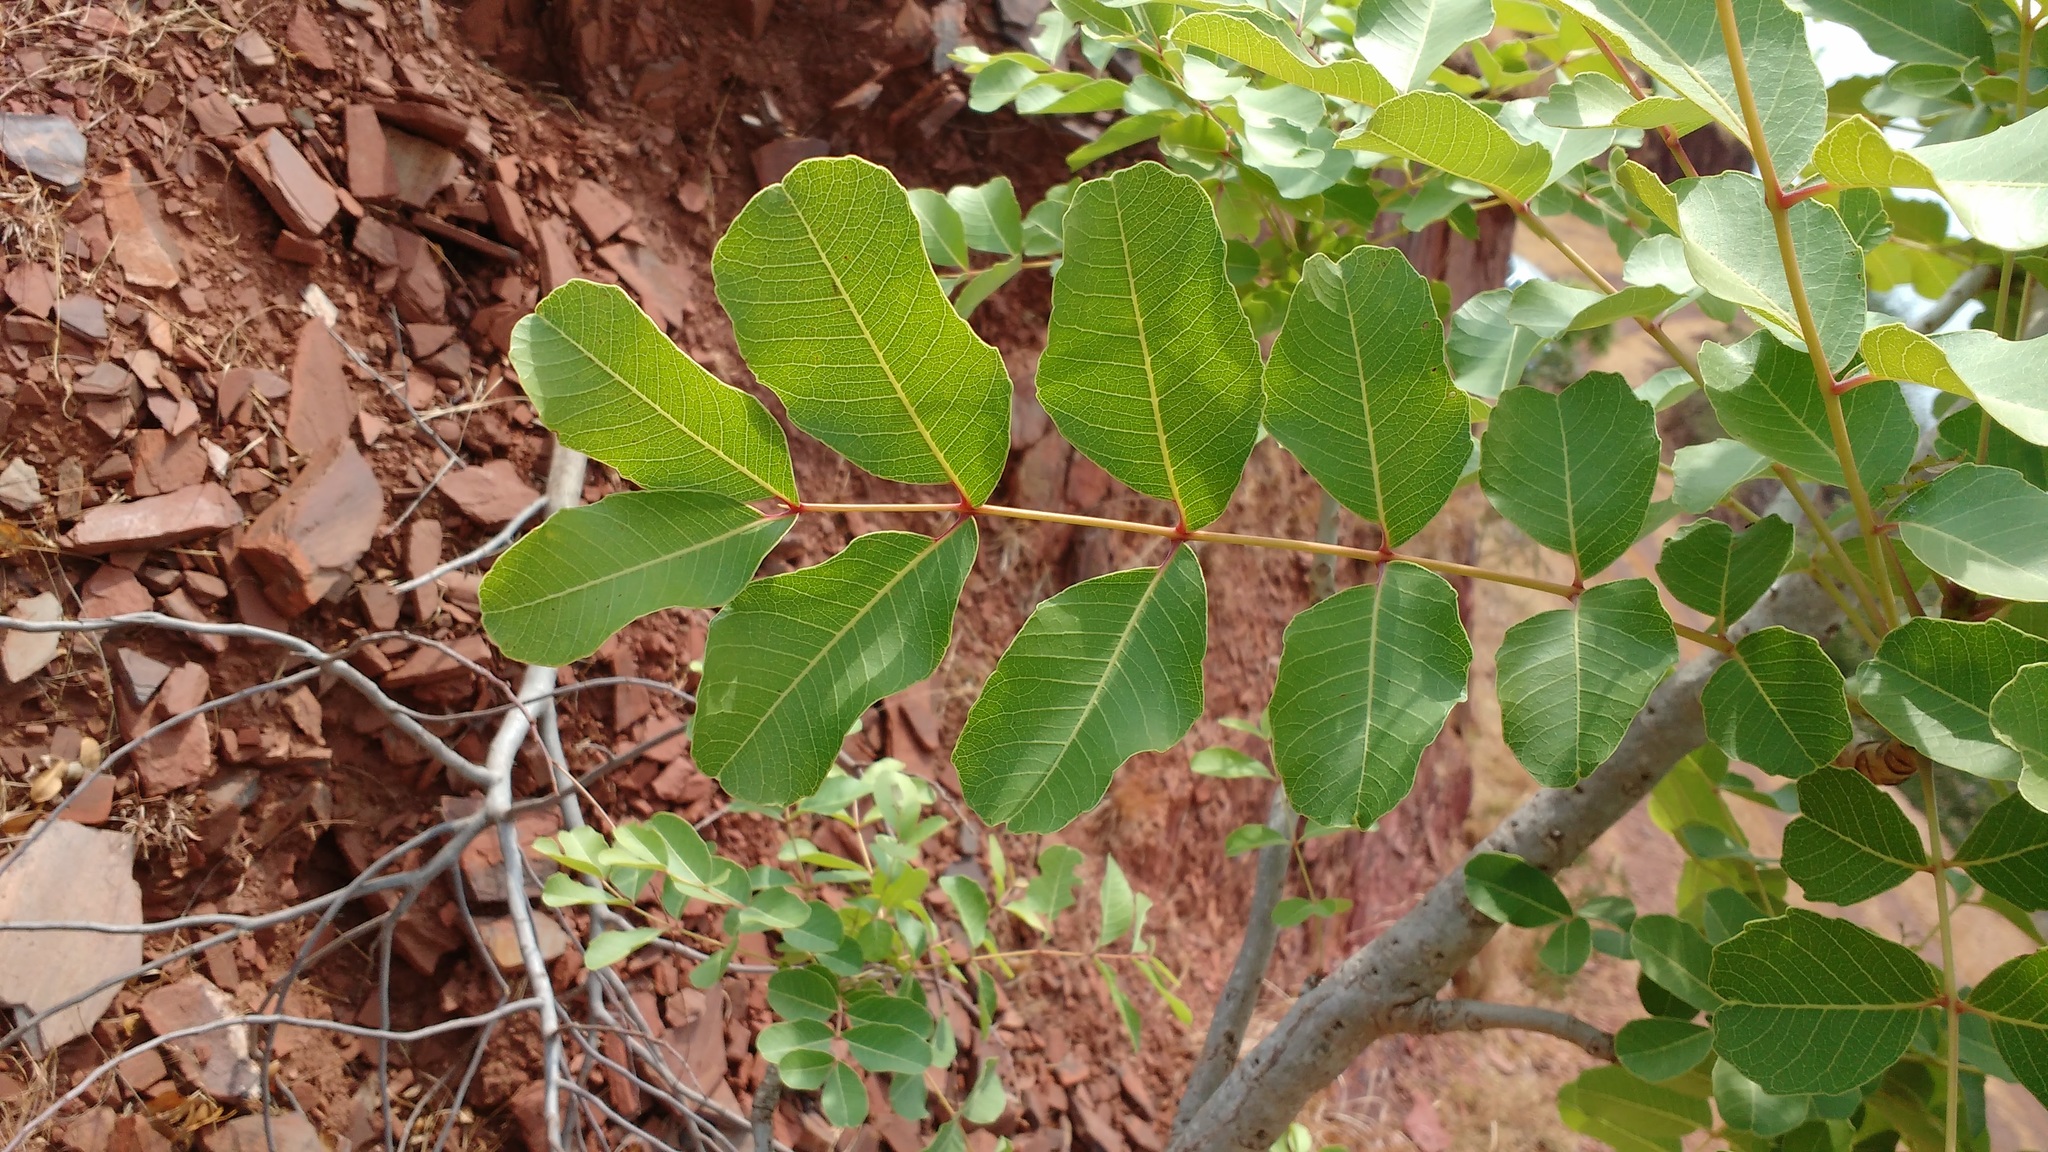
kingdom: Plantae
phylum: Tracheophyta
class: Magnoliopsida
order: Sapindales
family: Meliaceae
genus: Soymida
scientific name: Soymida febrifuga
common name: Indian-redwood
